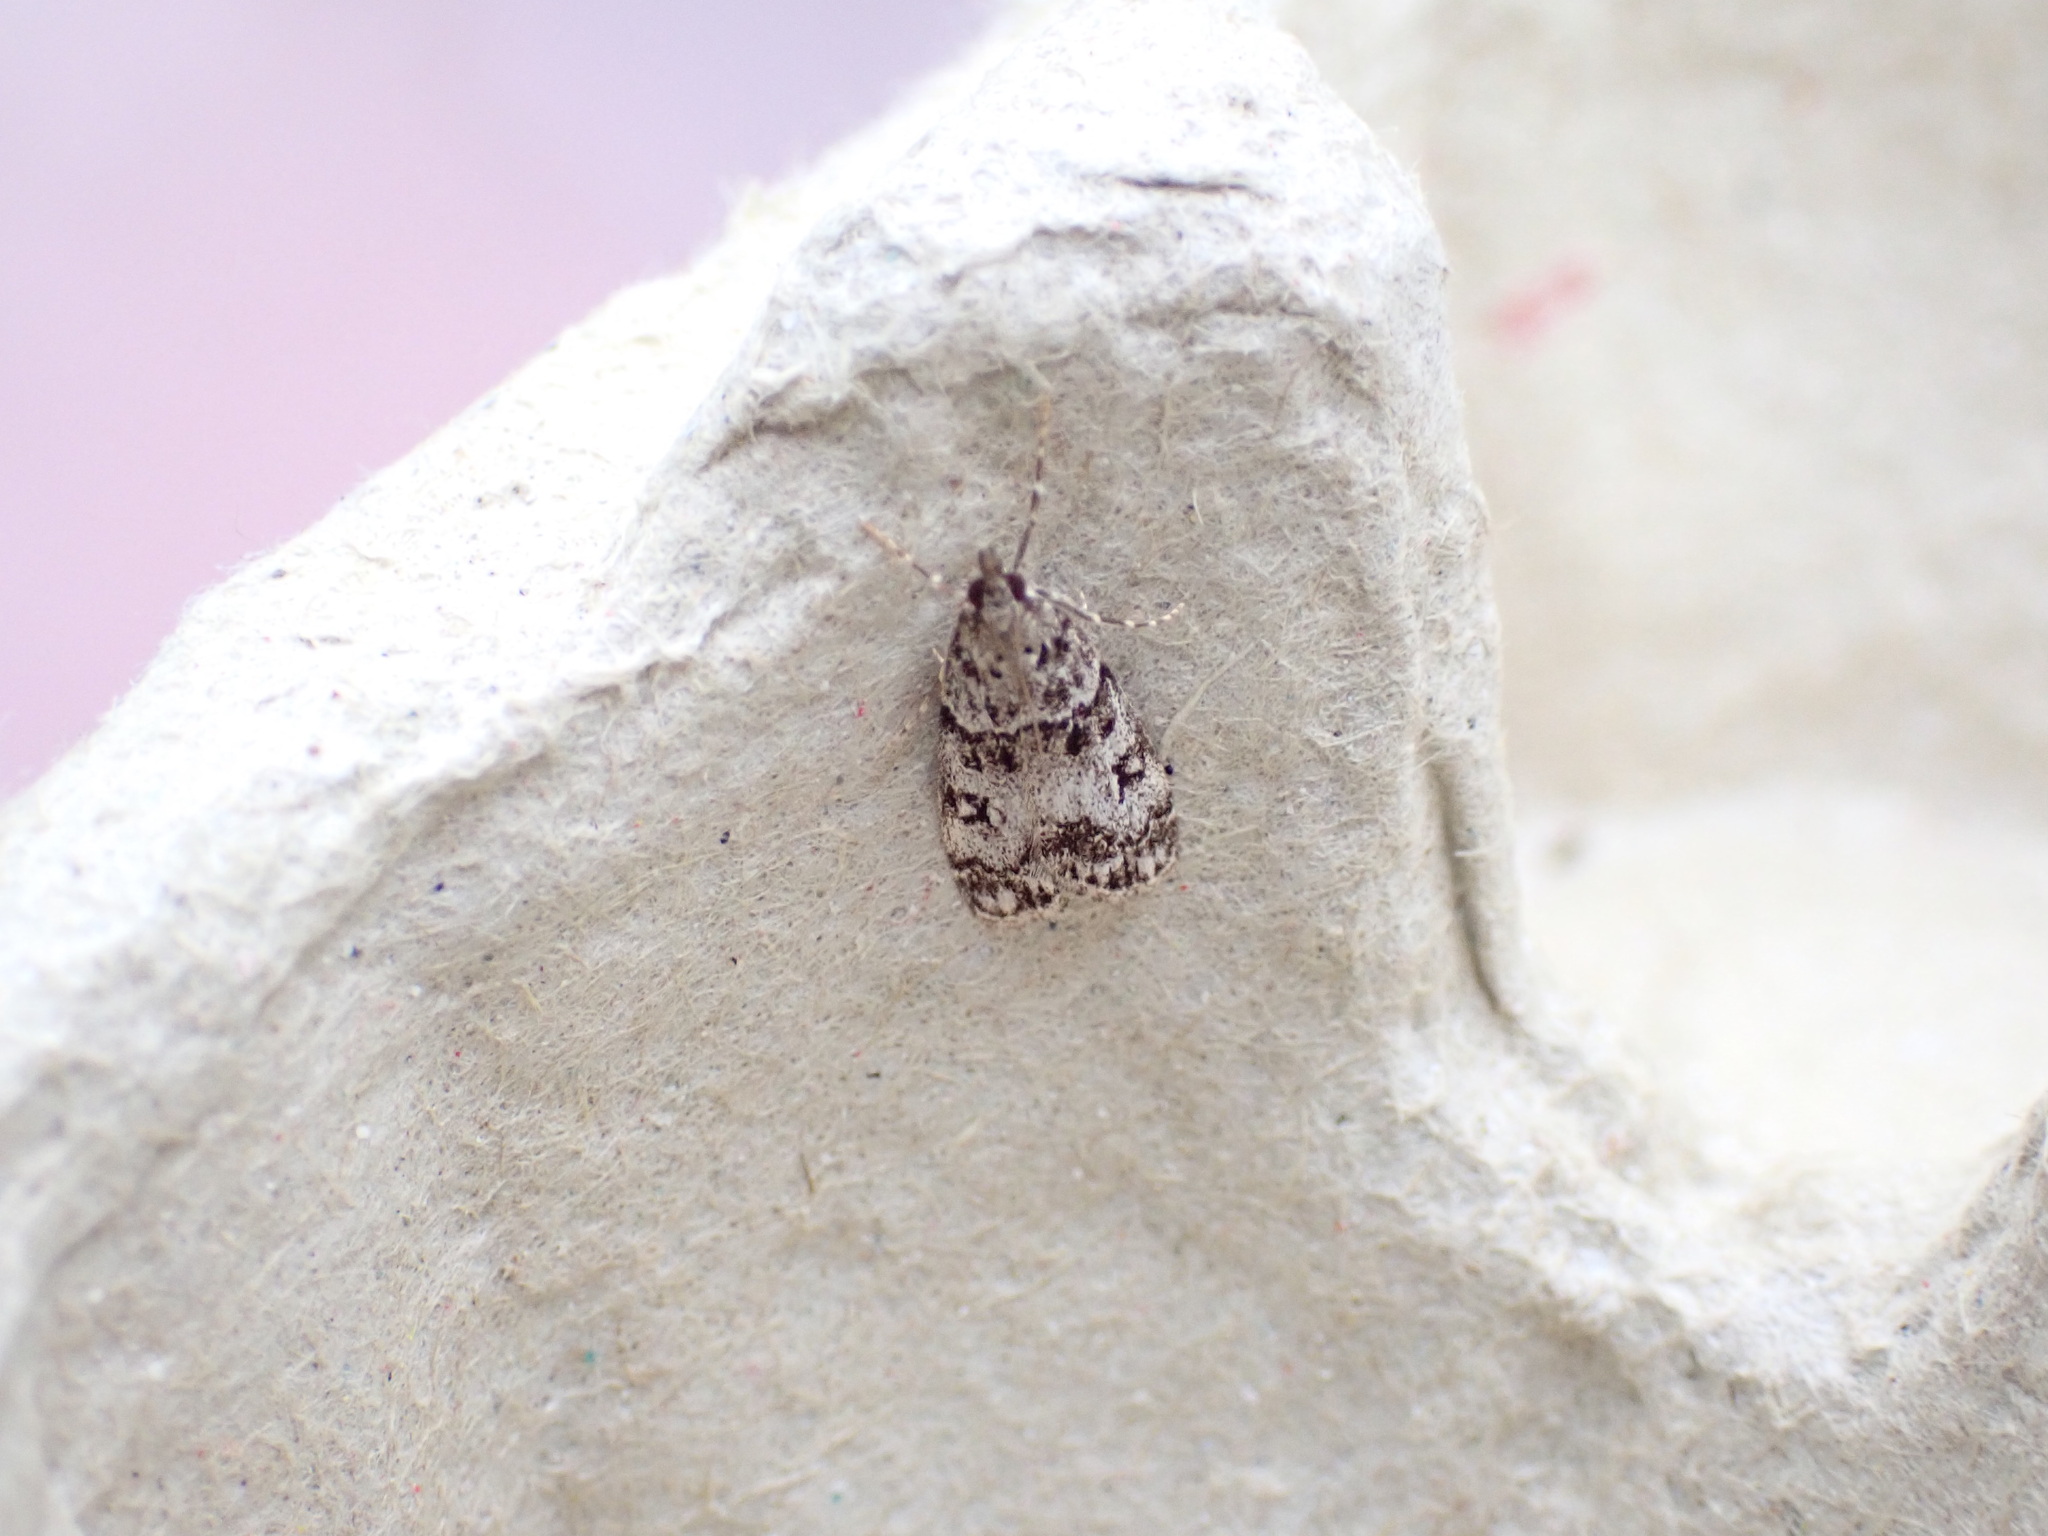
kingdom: Animalia
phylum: Arthropoda
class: Insecta
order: Lepidoptera
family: Crambidae
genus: Eudonia
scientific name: Eudonia lacustrata
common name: Little grey
